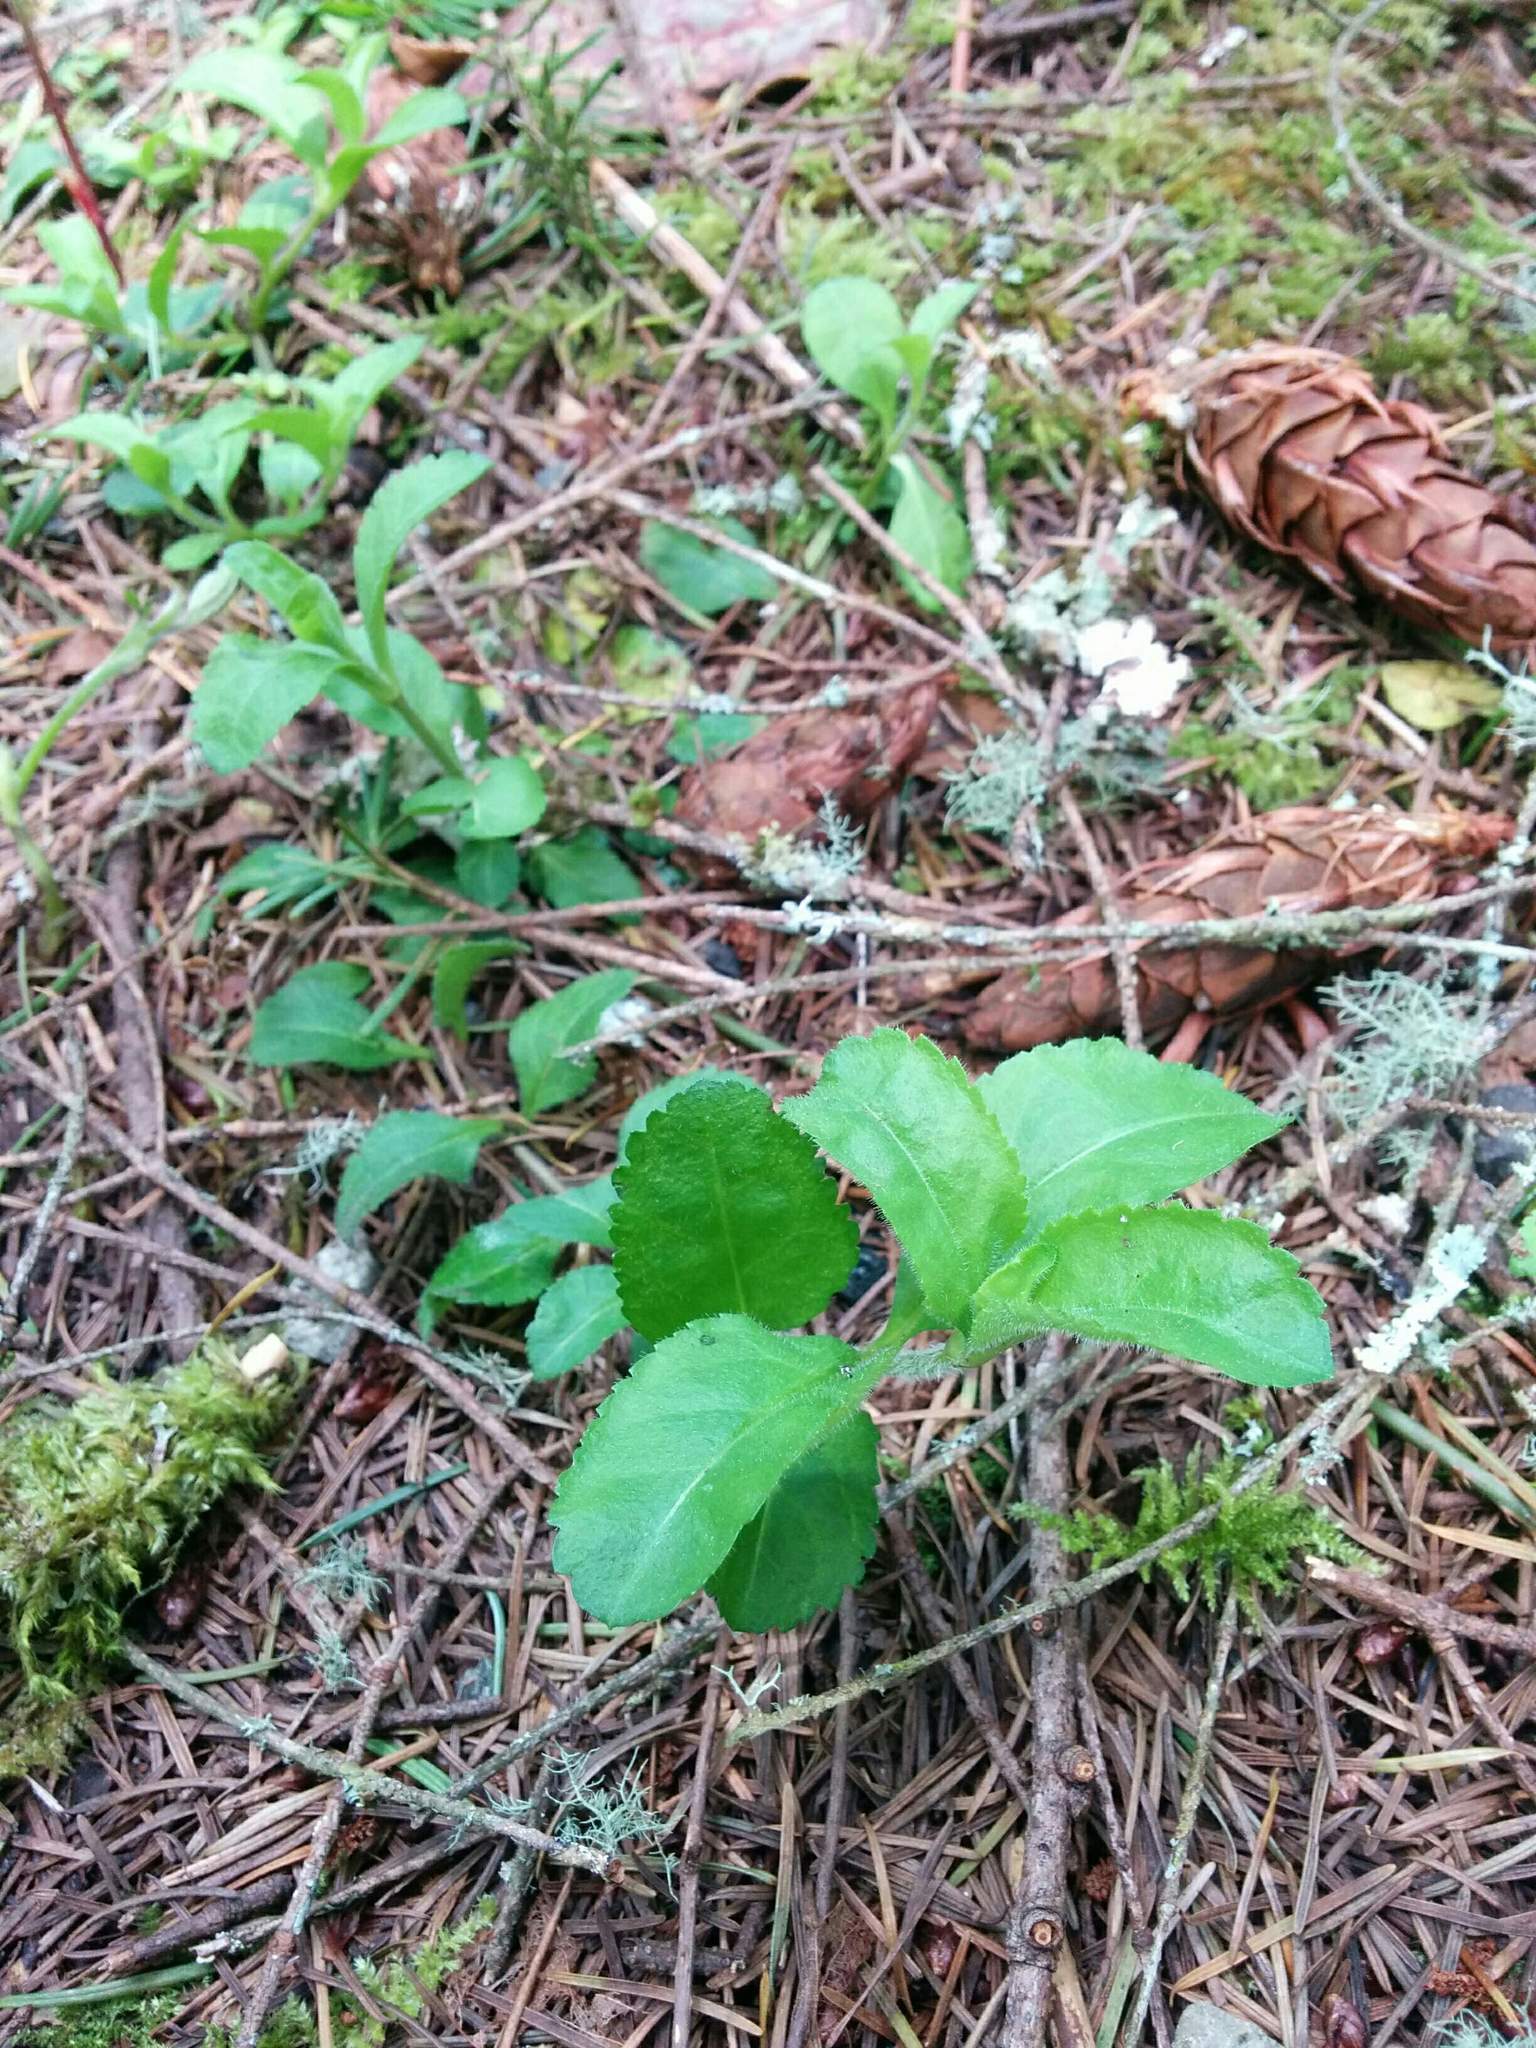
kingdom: Plantae
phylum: Tracheophyta
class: Magnoliopsida
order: Lamiales
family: Plantaginaceae
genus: Veronica
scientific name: Veronica officinalis
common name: Common speedwell
